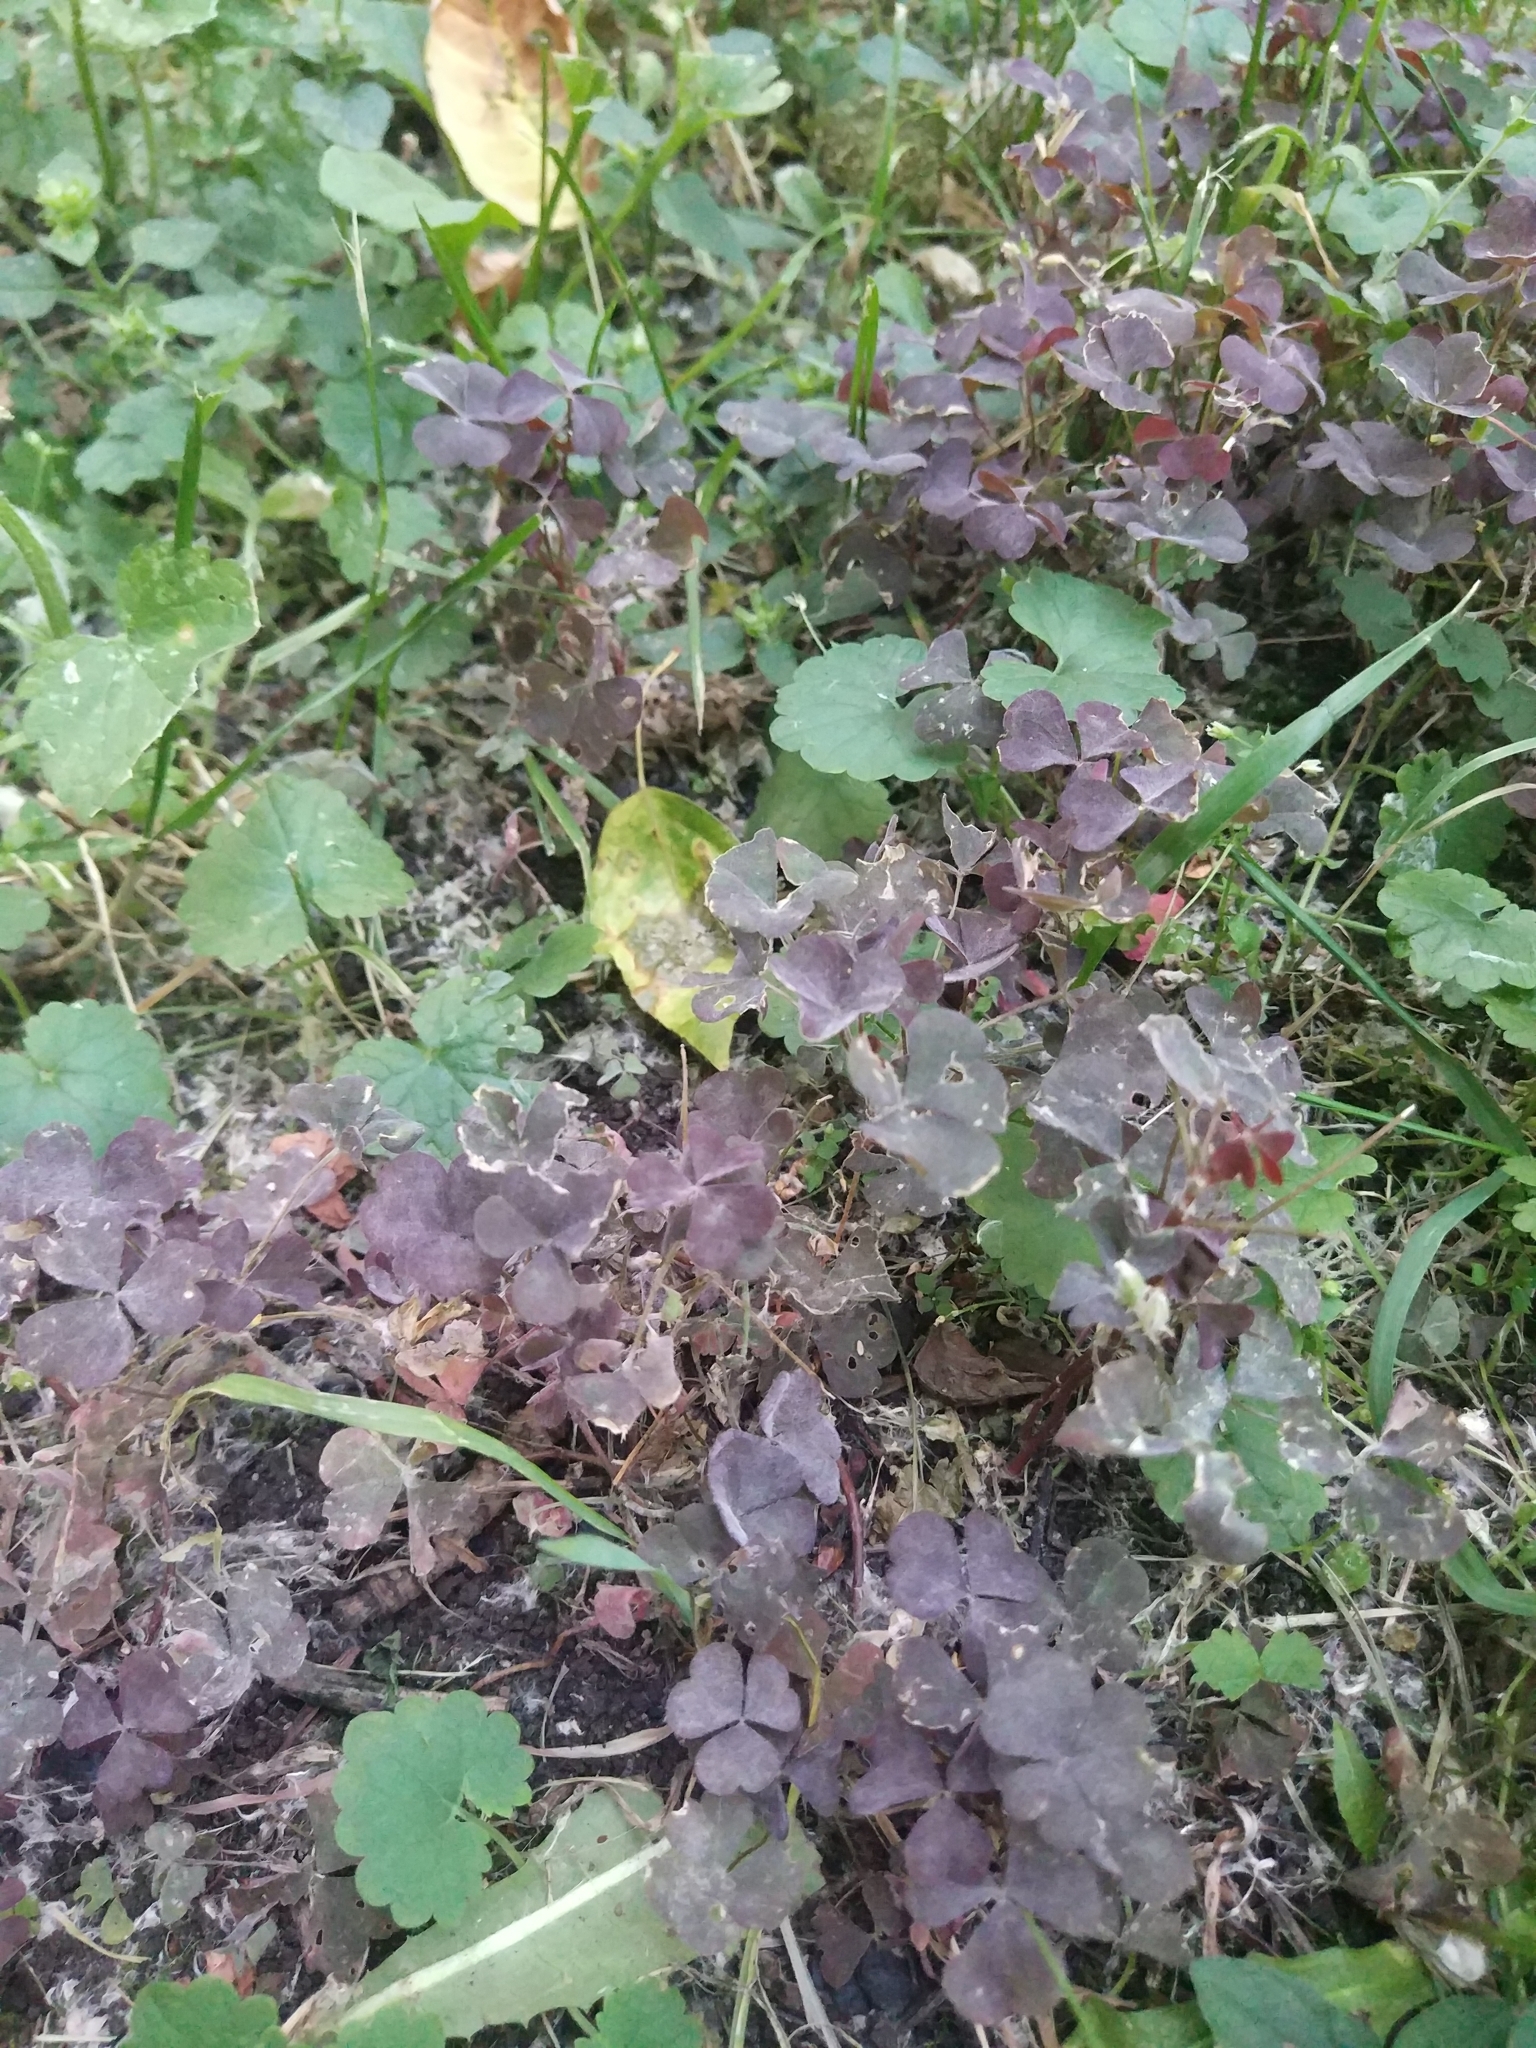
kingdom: Plantae
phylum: Tracheophyta
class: Magnoliopsida
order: Oxalidales
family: Oxalidaceae
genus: Oxalis
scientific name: Oxalis stricta
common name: Upright yellow-sorrel
